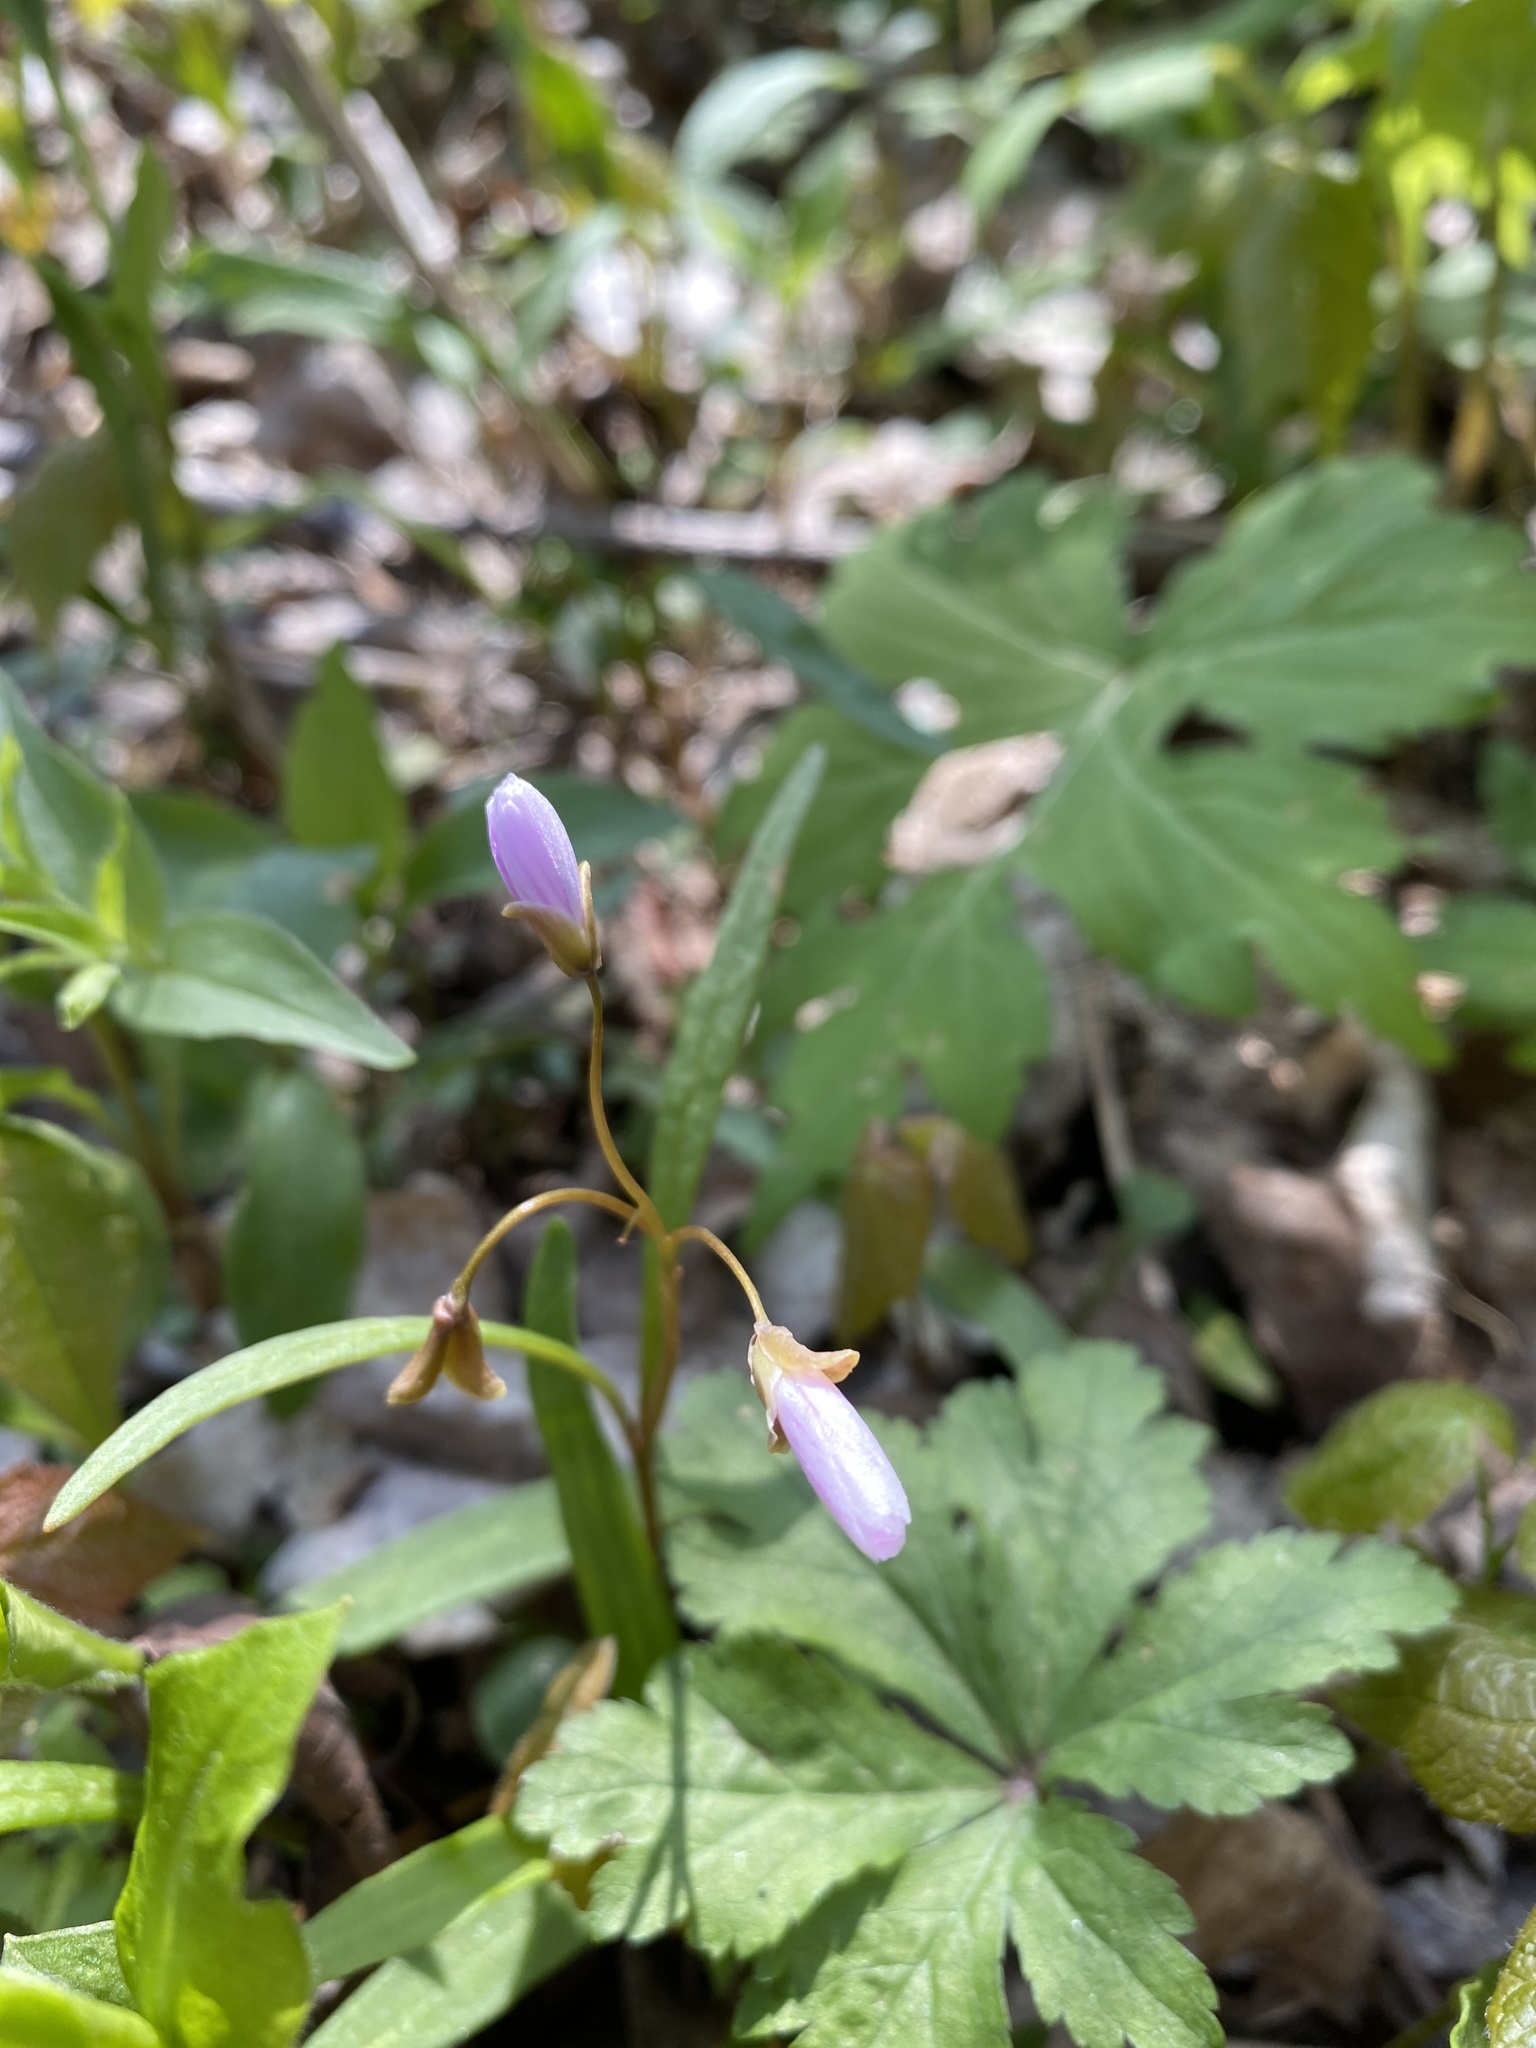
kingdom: Plantae
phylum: Tracheophyta
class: Magnoliopsida
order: Caryophyllales
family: Montiaceae
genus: Claytonia
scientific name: Claytonia virginica
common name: Virginia springbeauty
